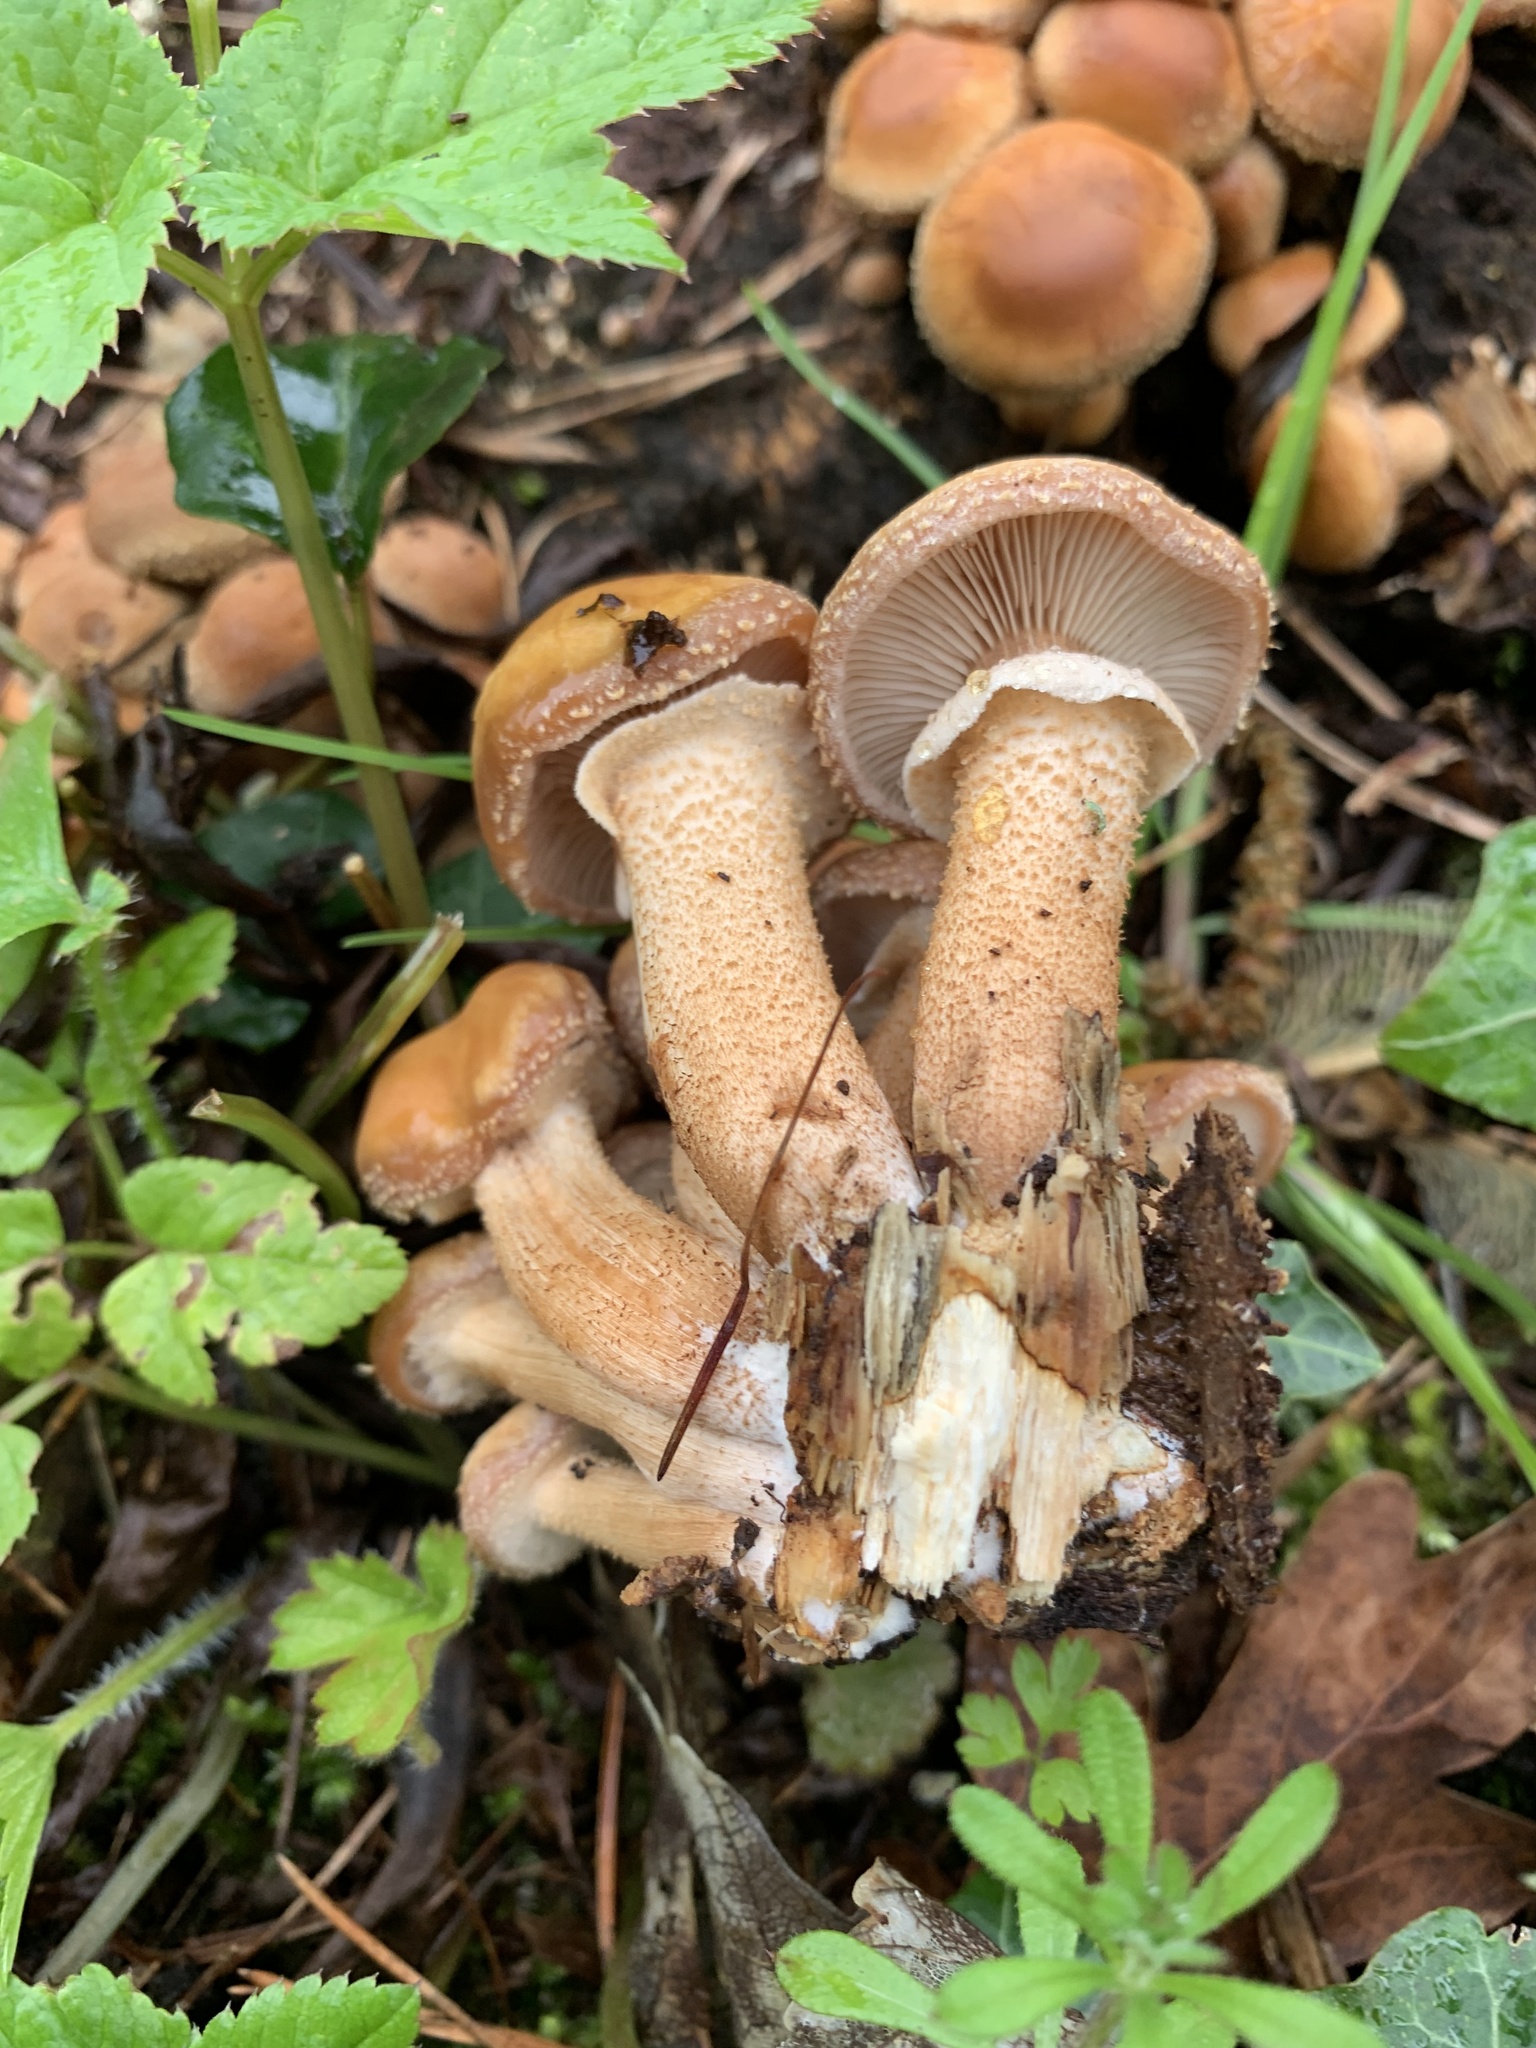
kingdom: Fungi
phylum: Basidiomycota
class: Agaricomycetes
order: Agaricales
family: Strophariaceae
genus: Kuehneromyces
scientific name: Kuehneromyces mutabilis
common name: Sheathed woodtuft
